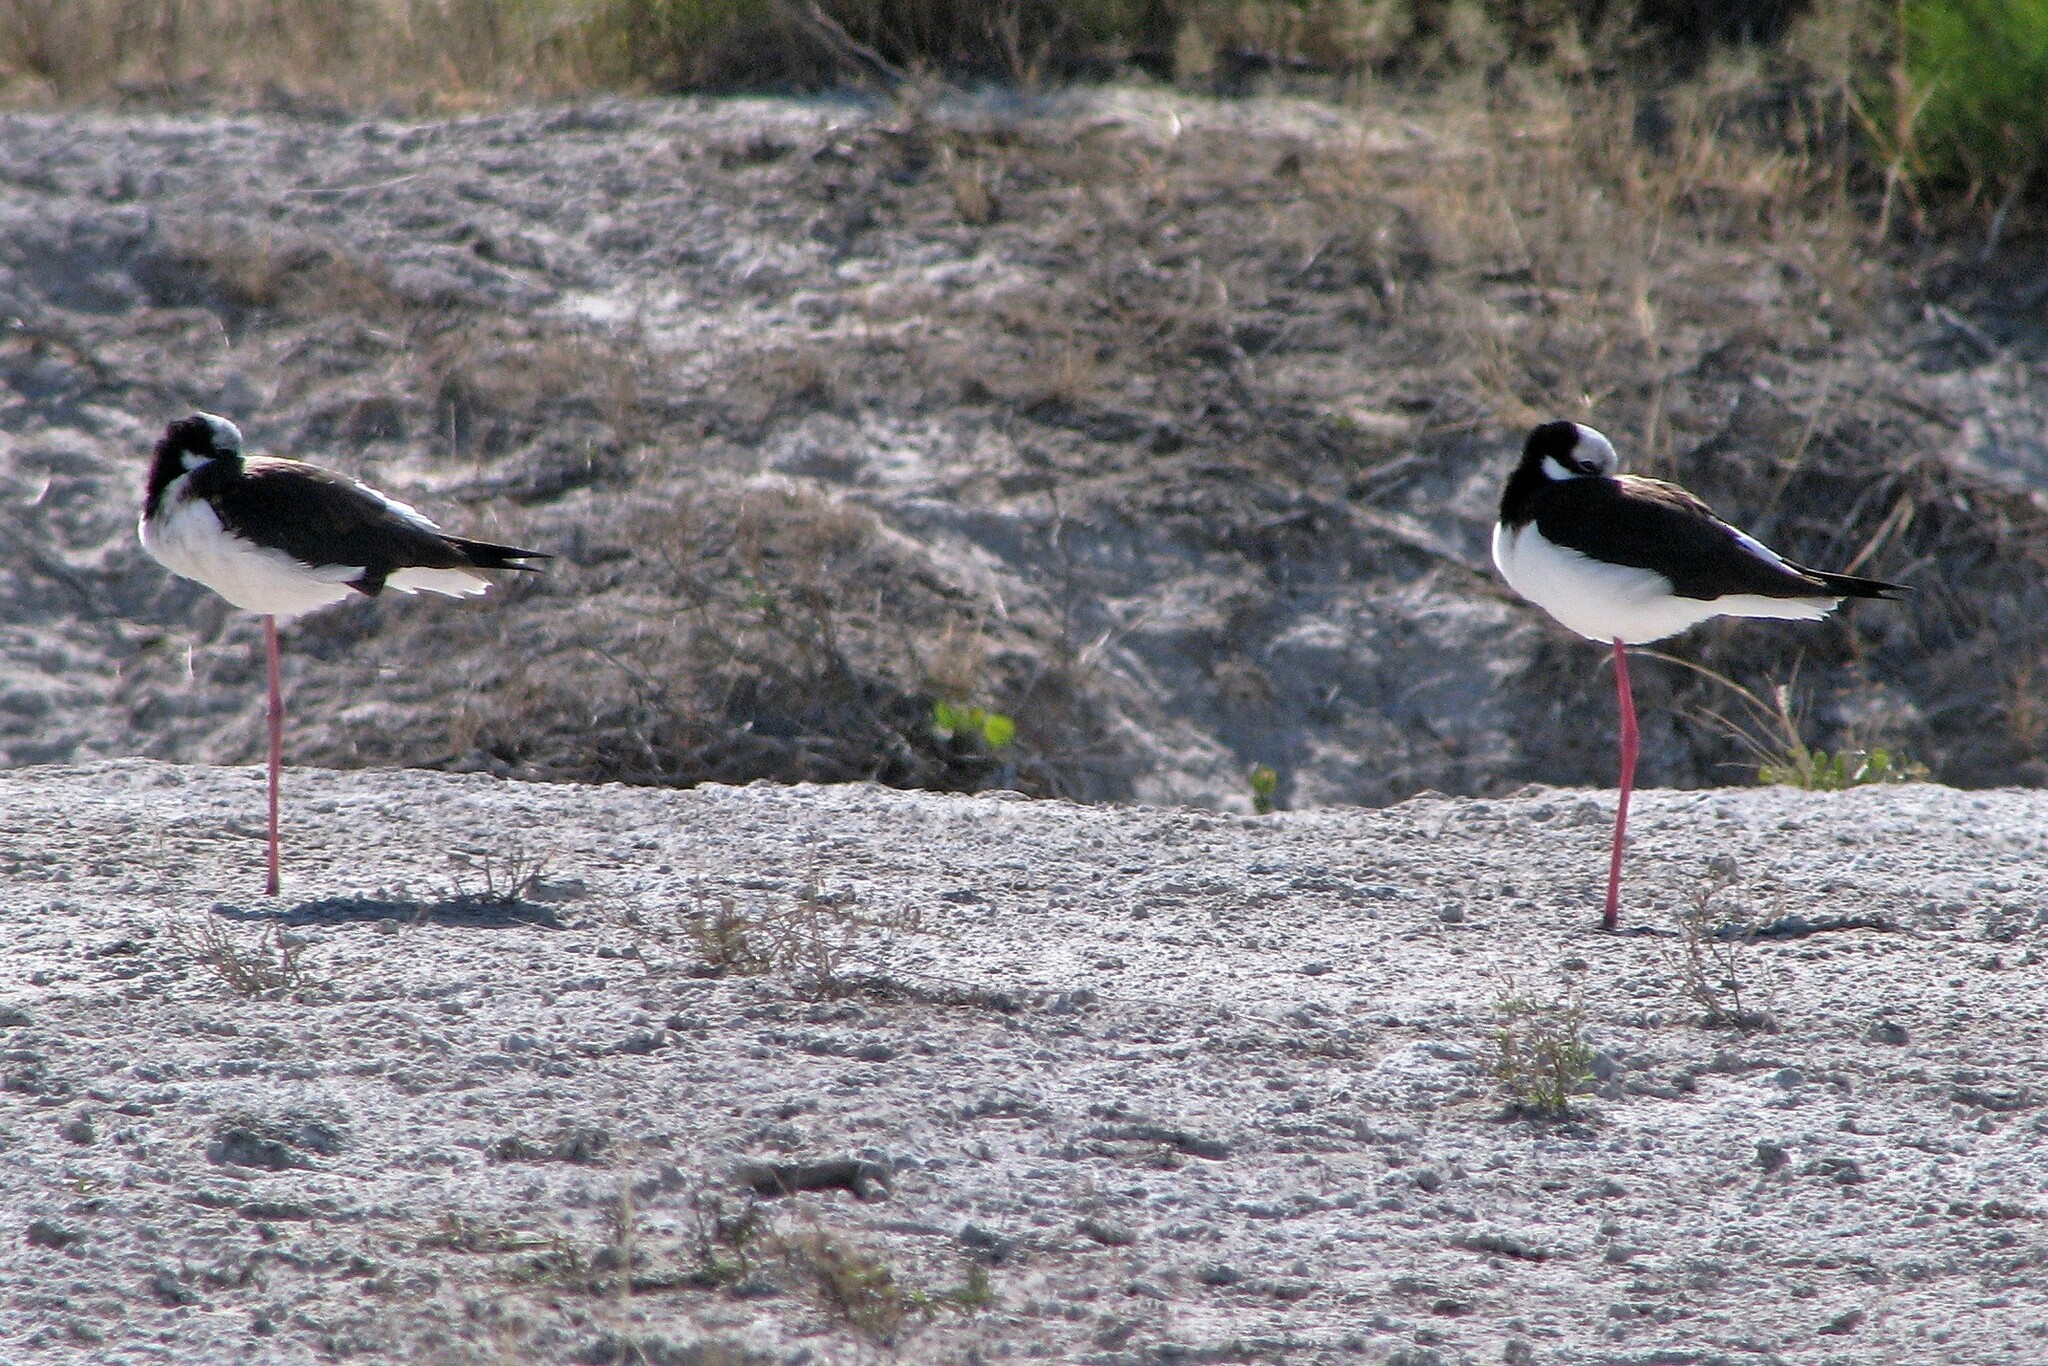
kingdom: Animalia
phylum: Chordata
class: Aves
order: Charadriiformes
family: Recurvirostridae
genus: Himantopus
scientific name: Himantopus mexicanus
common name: Black-necked stilt
